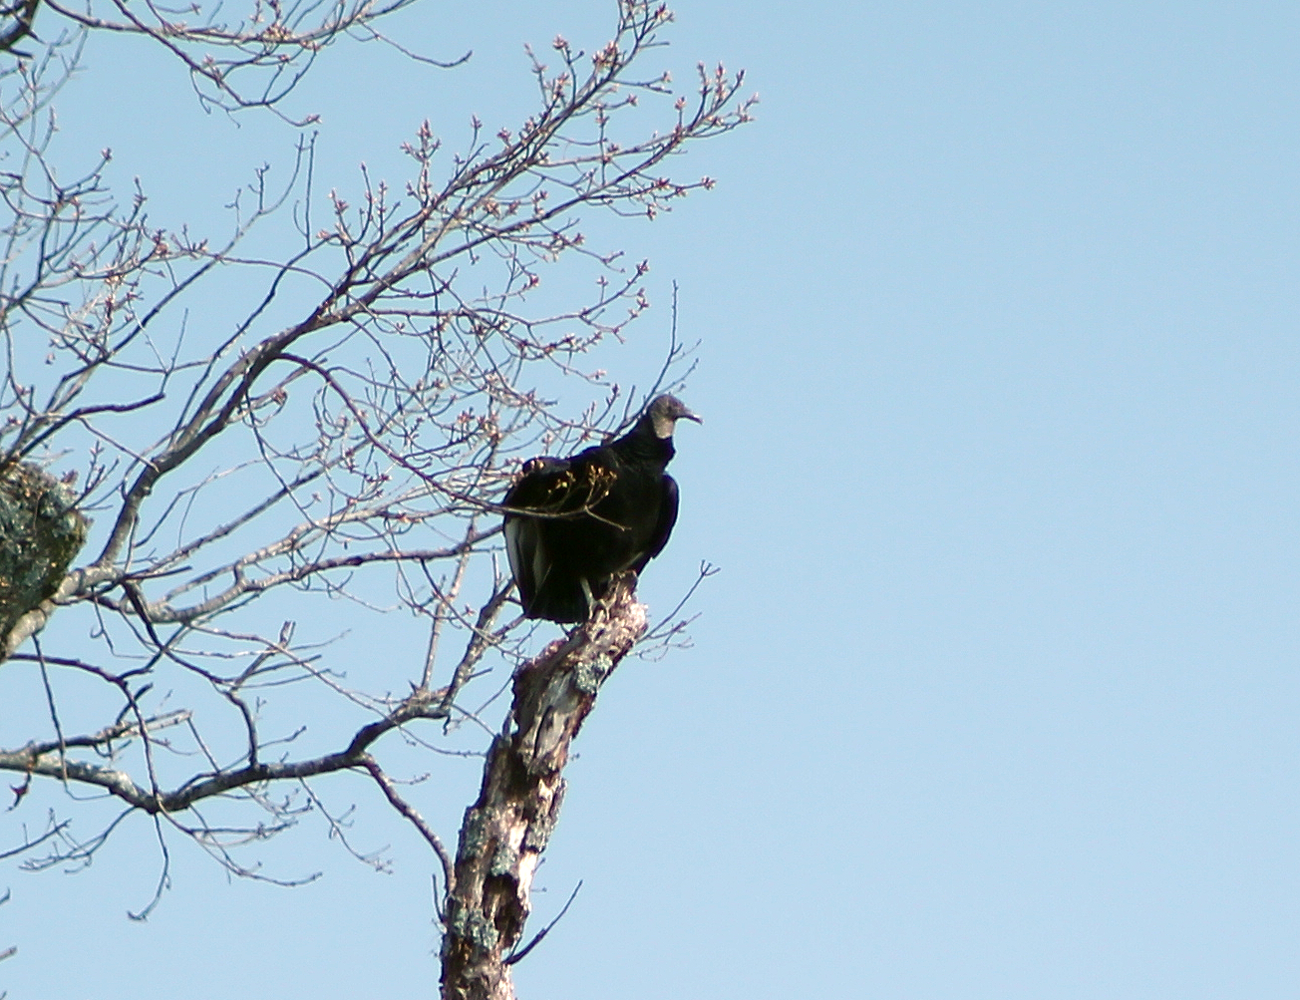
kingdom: Animalia
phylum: Chordata
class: Aves
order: Accipitriformes
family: Cathartidae
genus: Coragyps
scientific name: Coragyps atratus
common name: Black vulture
